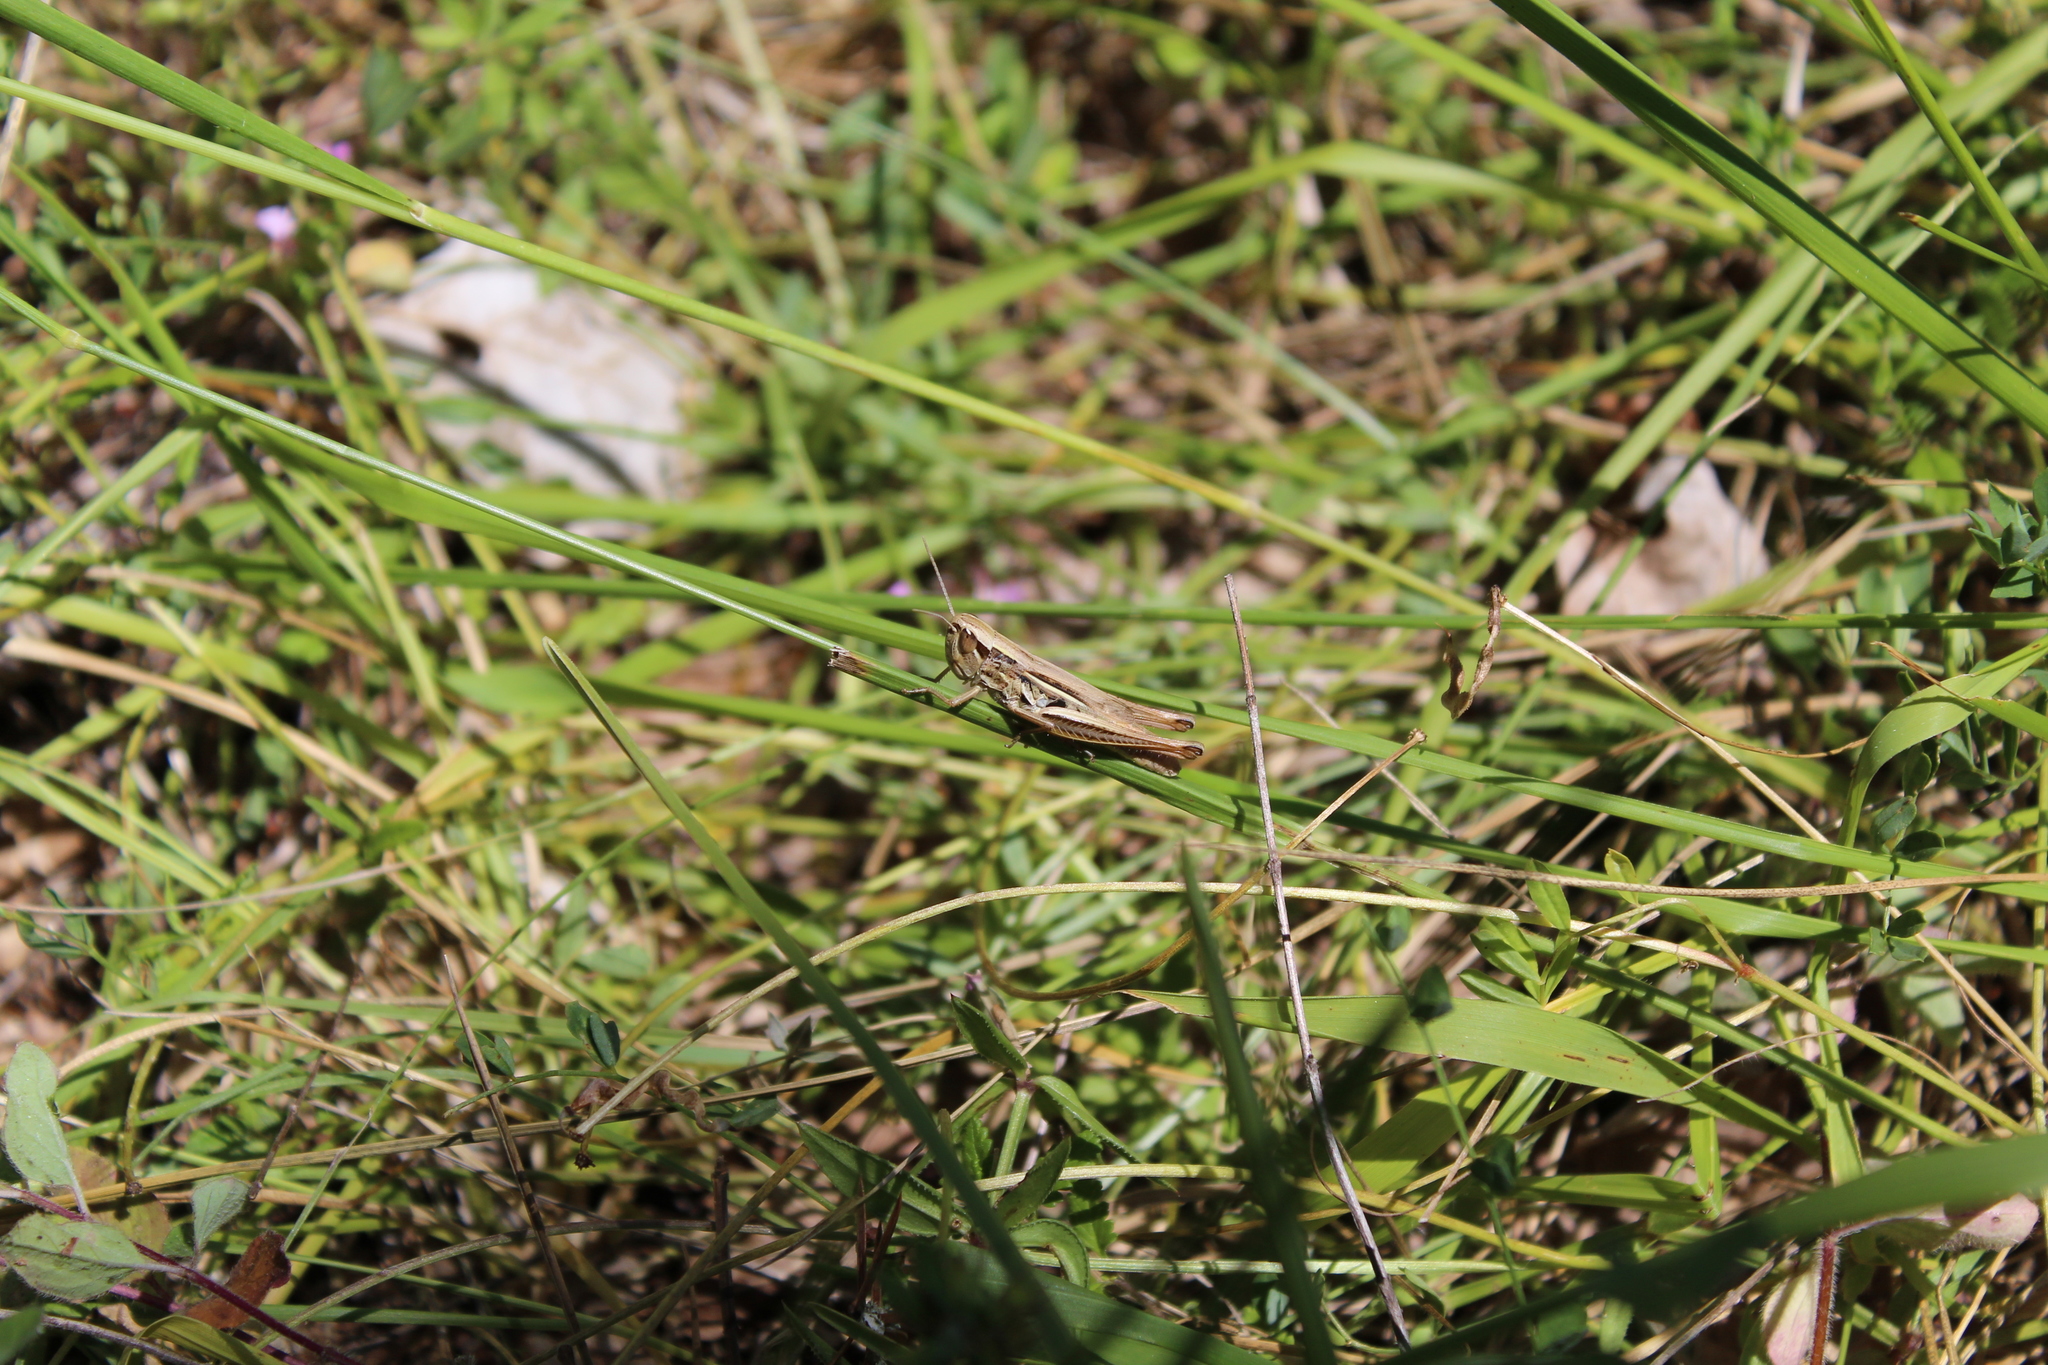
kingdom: Animalia
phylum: Arthropoda
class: Insecta
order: Orthoptera
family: Acrididae
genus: Euchorthippus
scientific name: Euchorthippus elegantulus
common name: Elegant straw grasshopper
